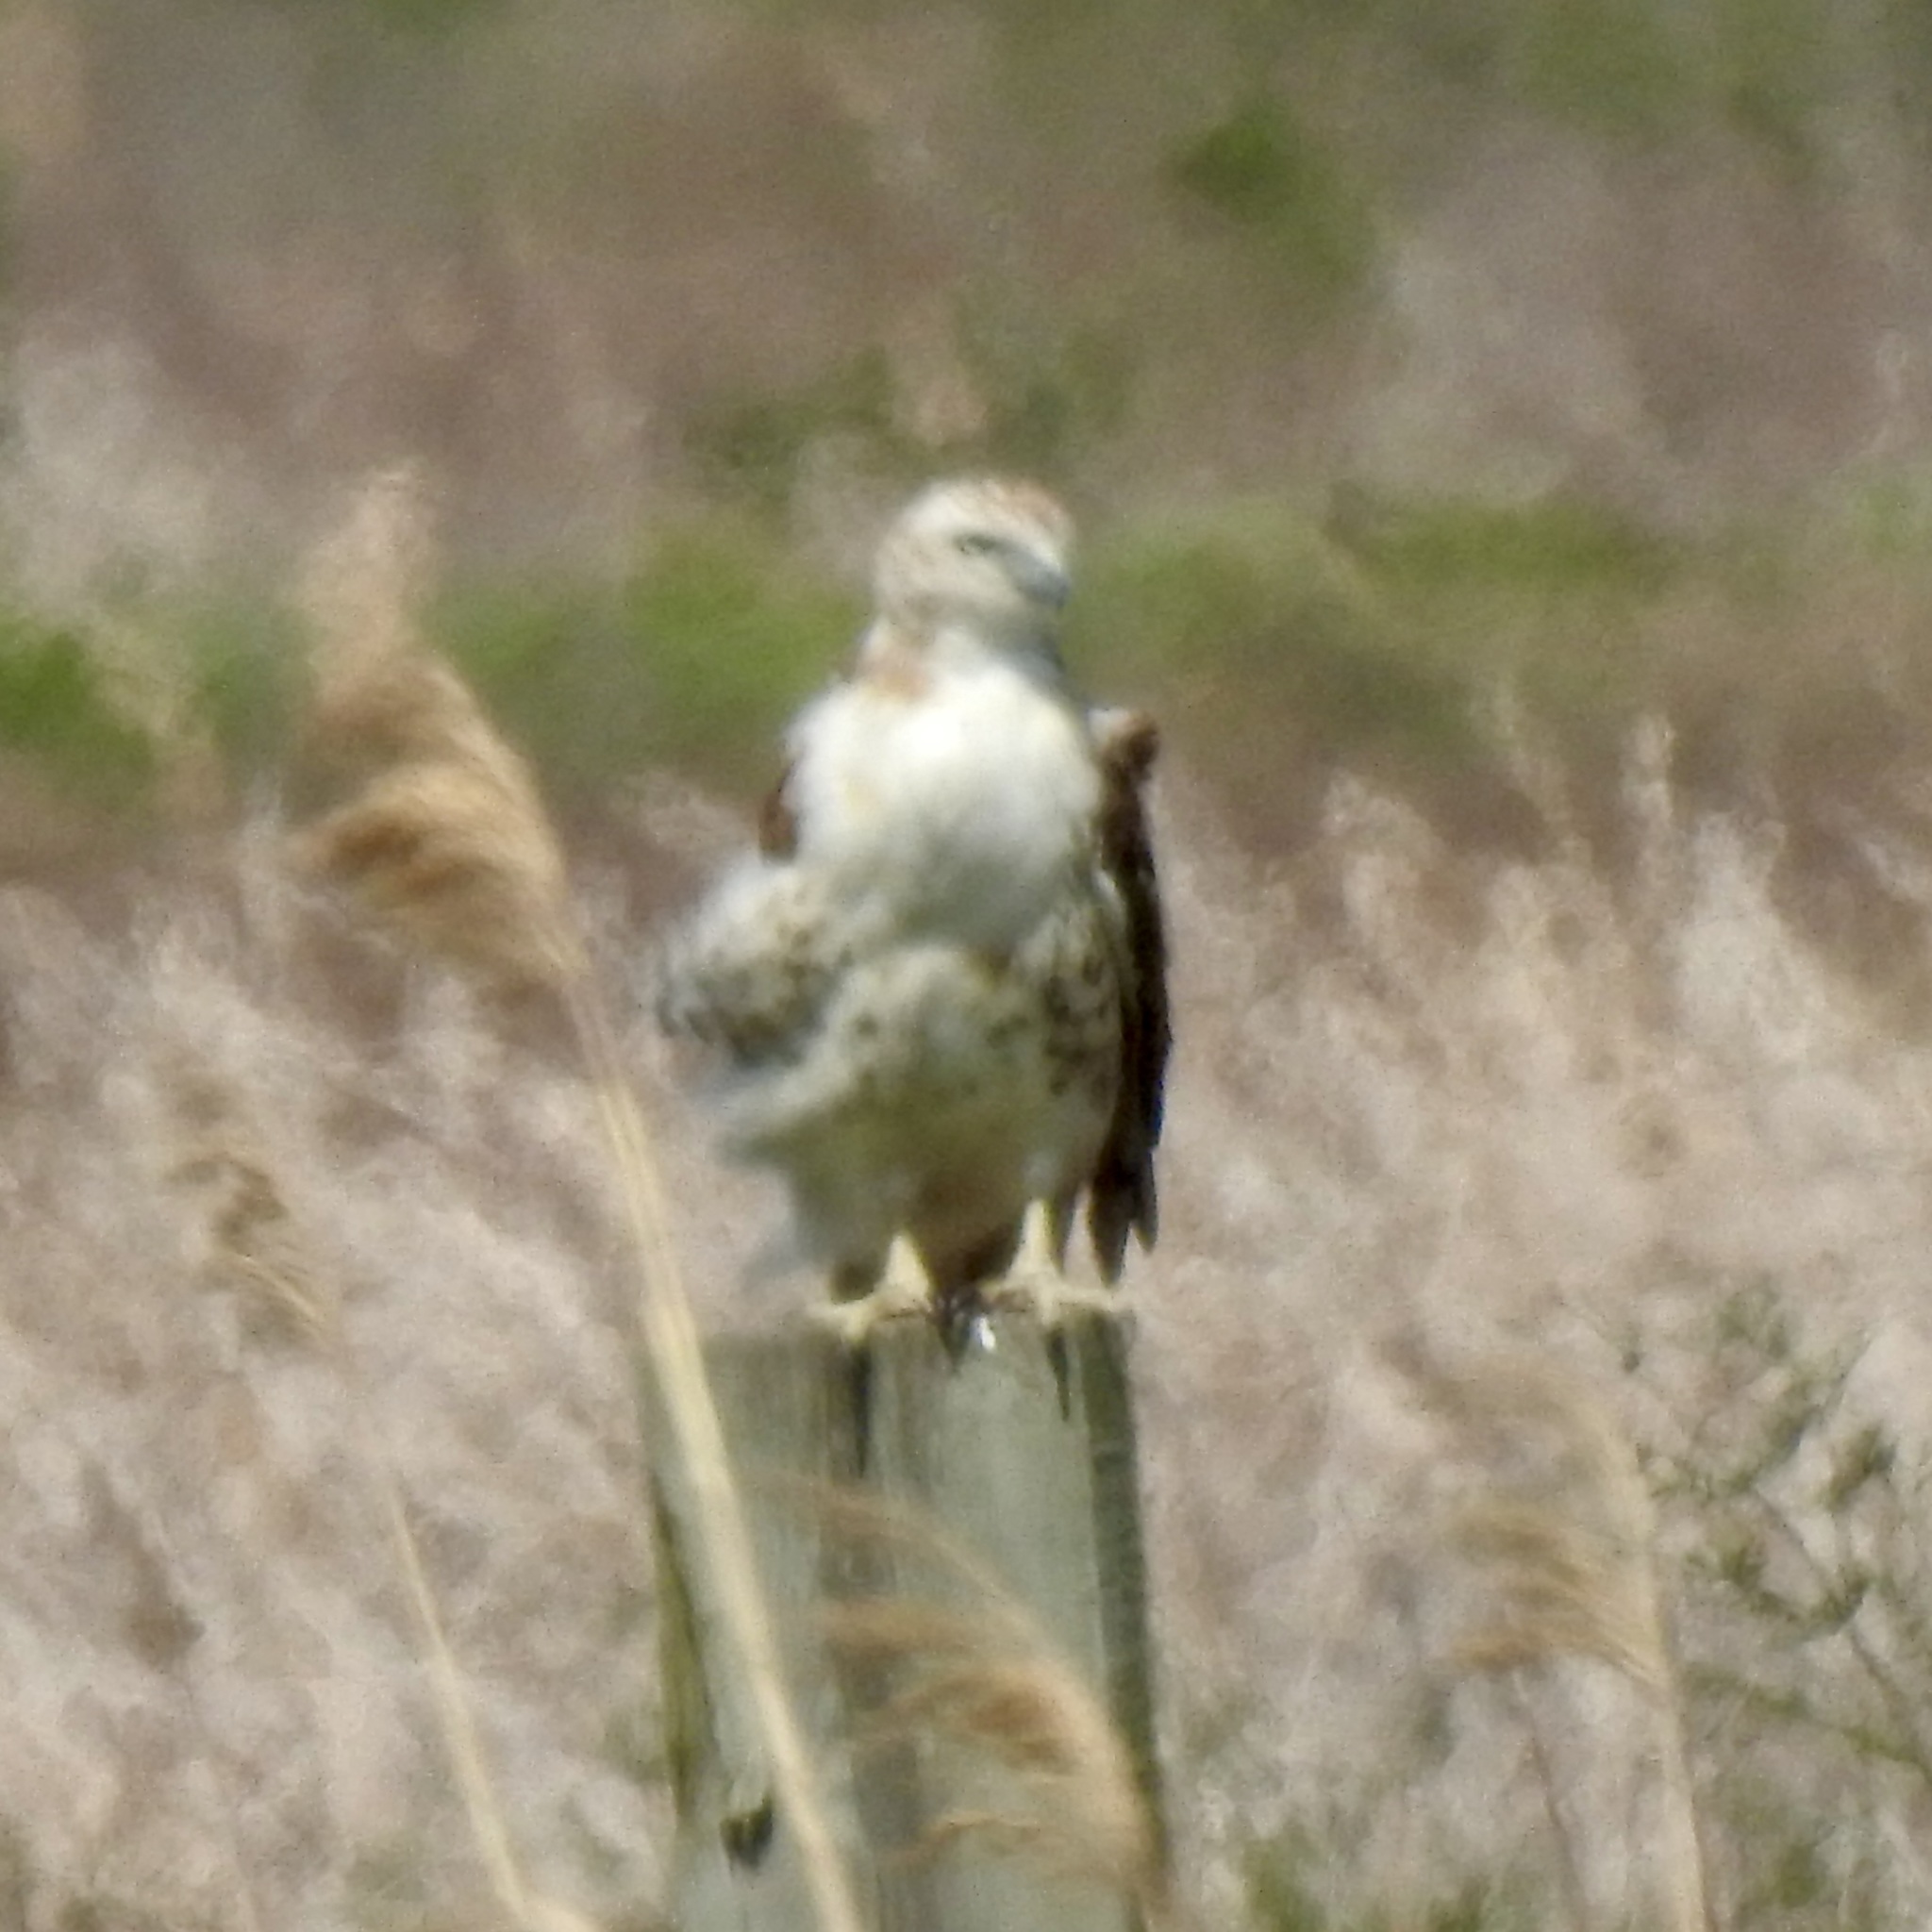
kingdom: Animalia
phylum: Chordata
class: Aves
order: Accipitriformes
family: Accipitridae
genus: Buteo
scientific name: Buteo jamaicensis
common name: Red-tailed hawk
